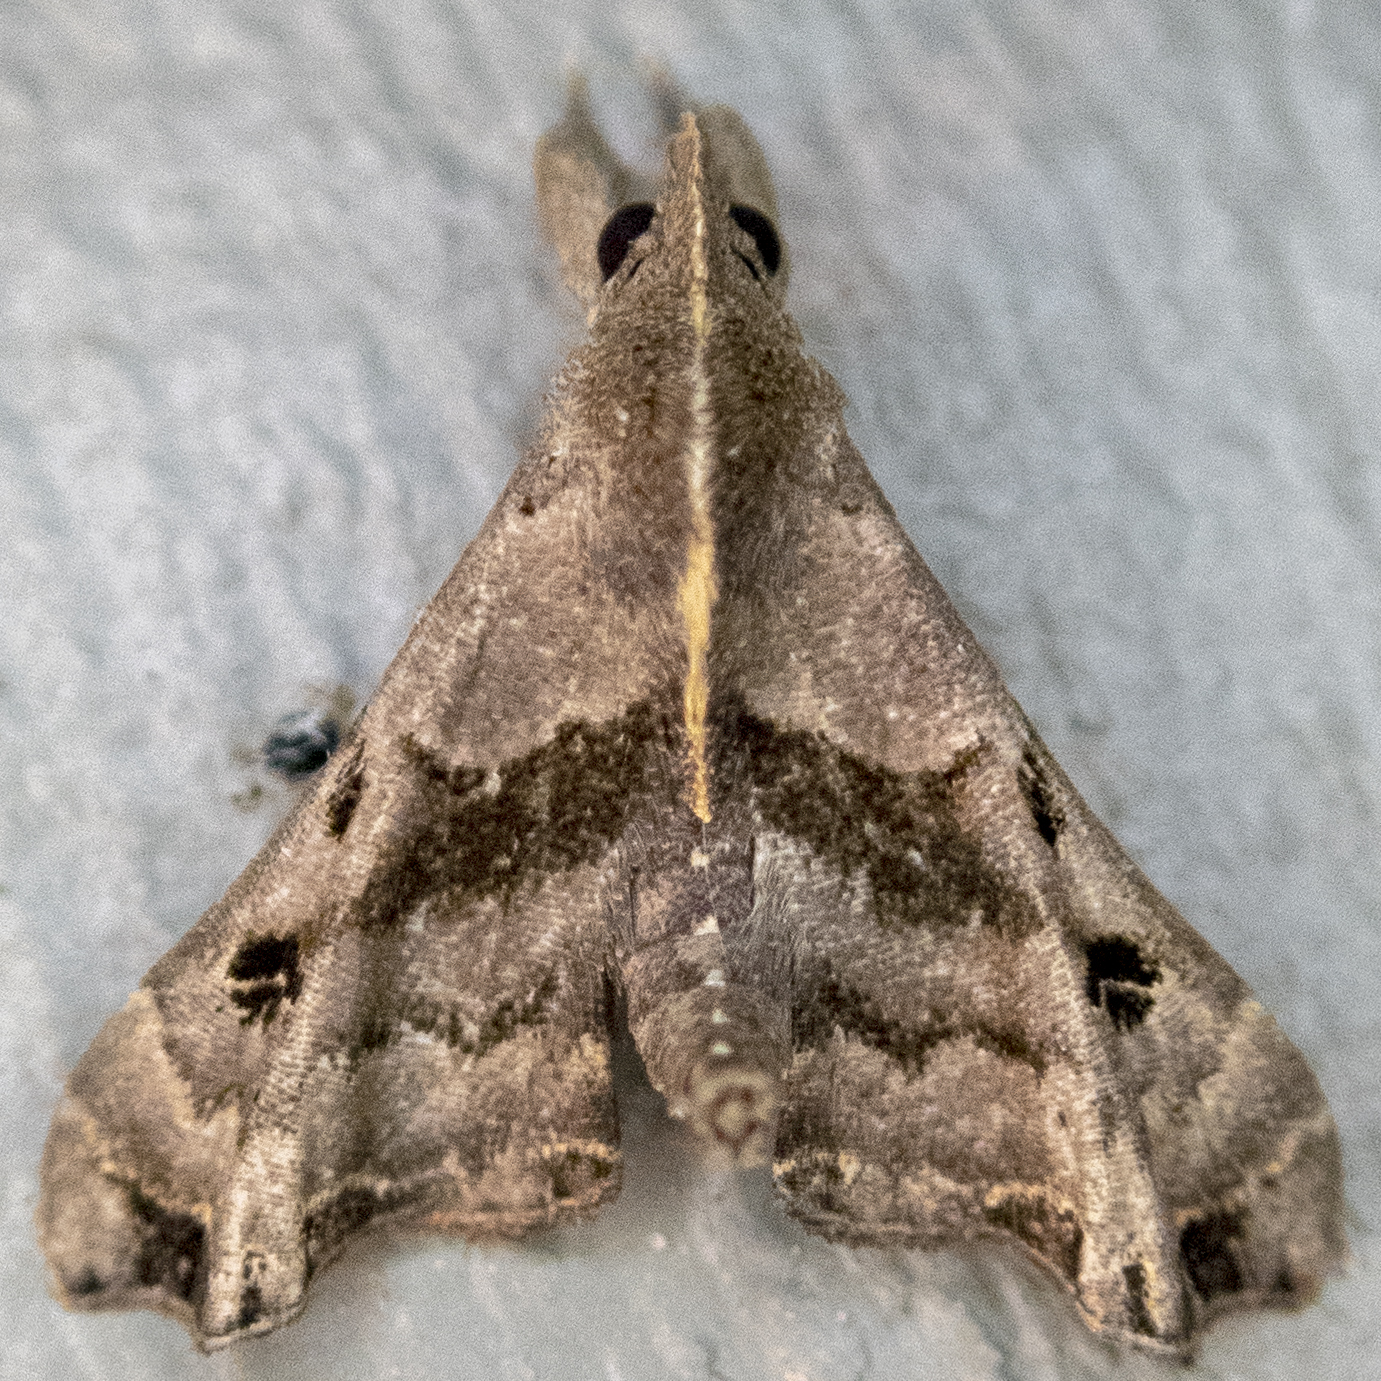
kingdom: Animalia
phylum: Arthropoda
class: Insecta
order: Lepidoptera
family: Erebidae
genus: Palthis
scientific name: Palthis asopialis
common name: Faint-spotted palthis moth
